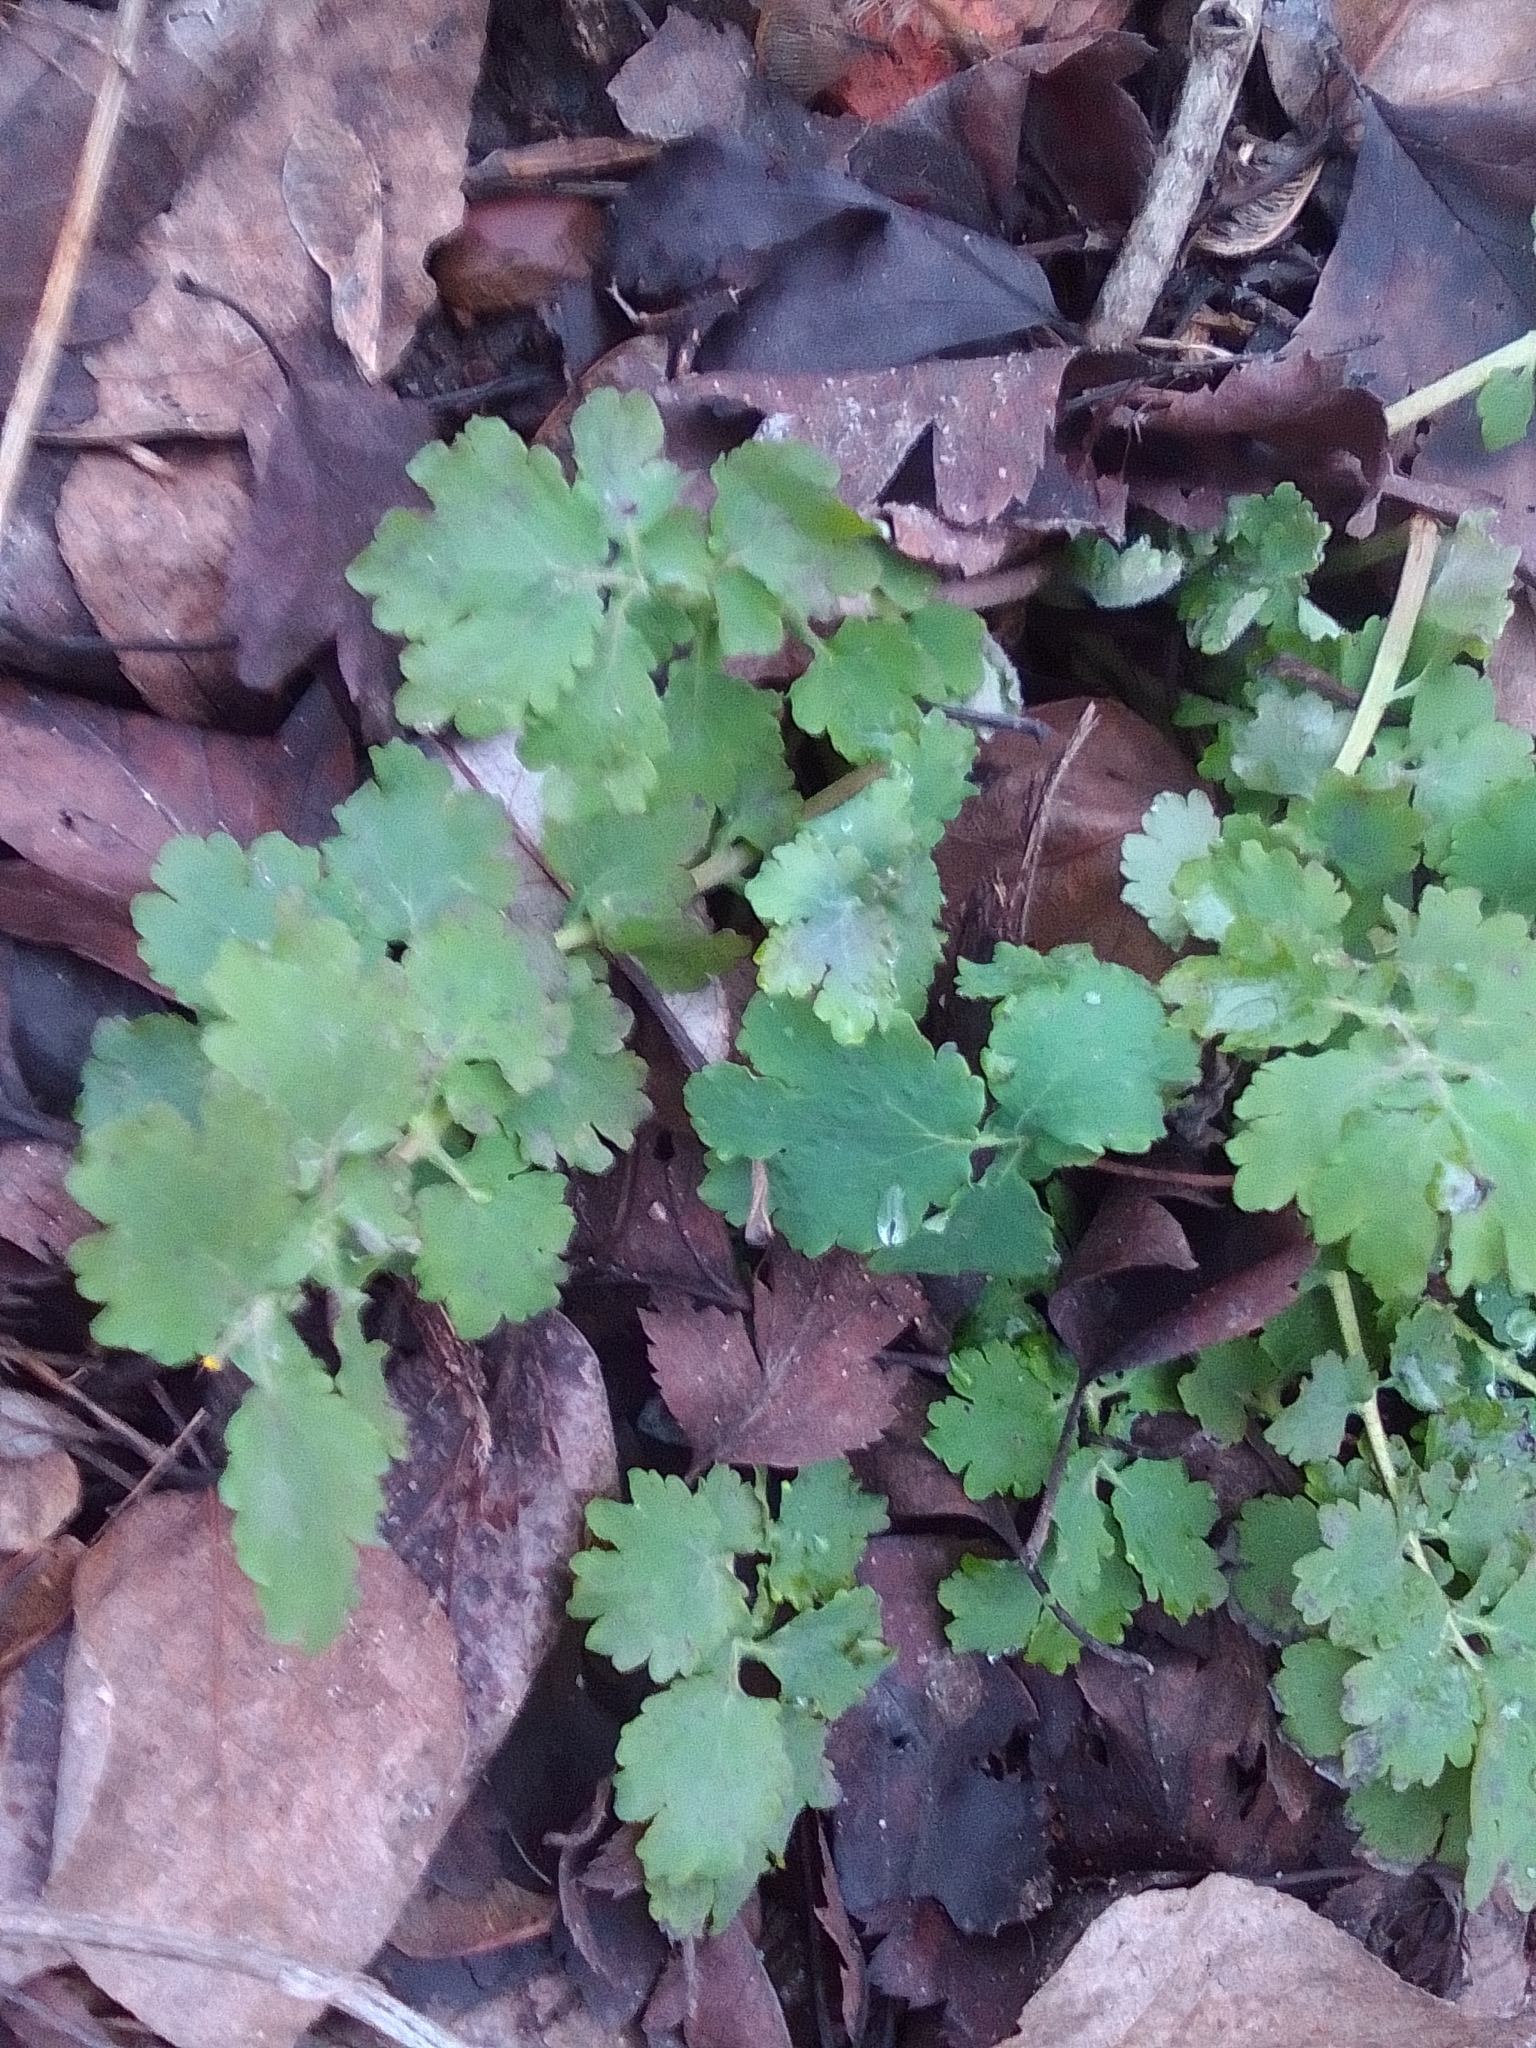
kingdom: Plantae
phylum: Tracheophyta
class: Magnoliopsida
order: Ranunculales
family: Papaveraceae
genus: Chelidonium
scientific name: Chelidonium majus
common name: Greater celandine
